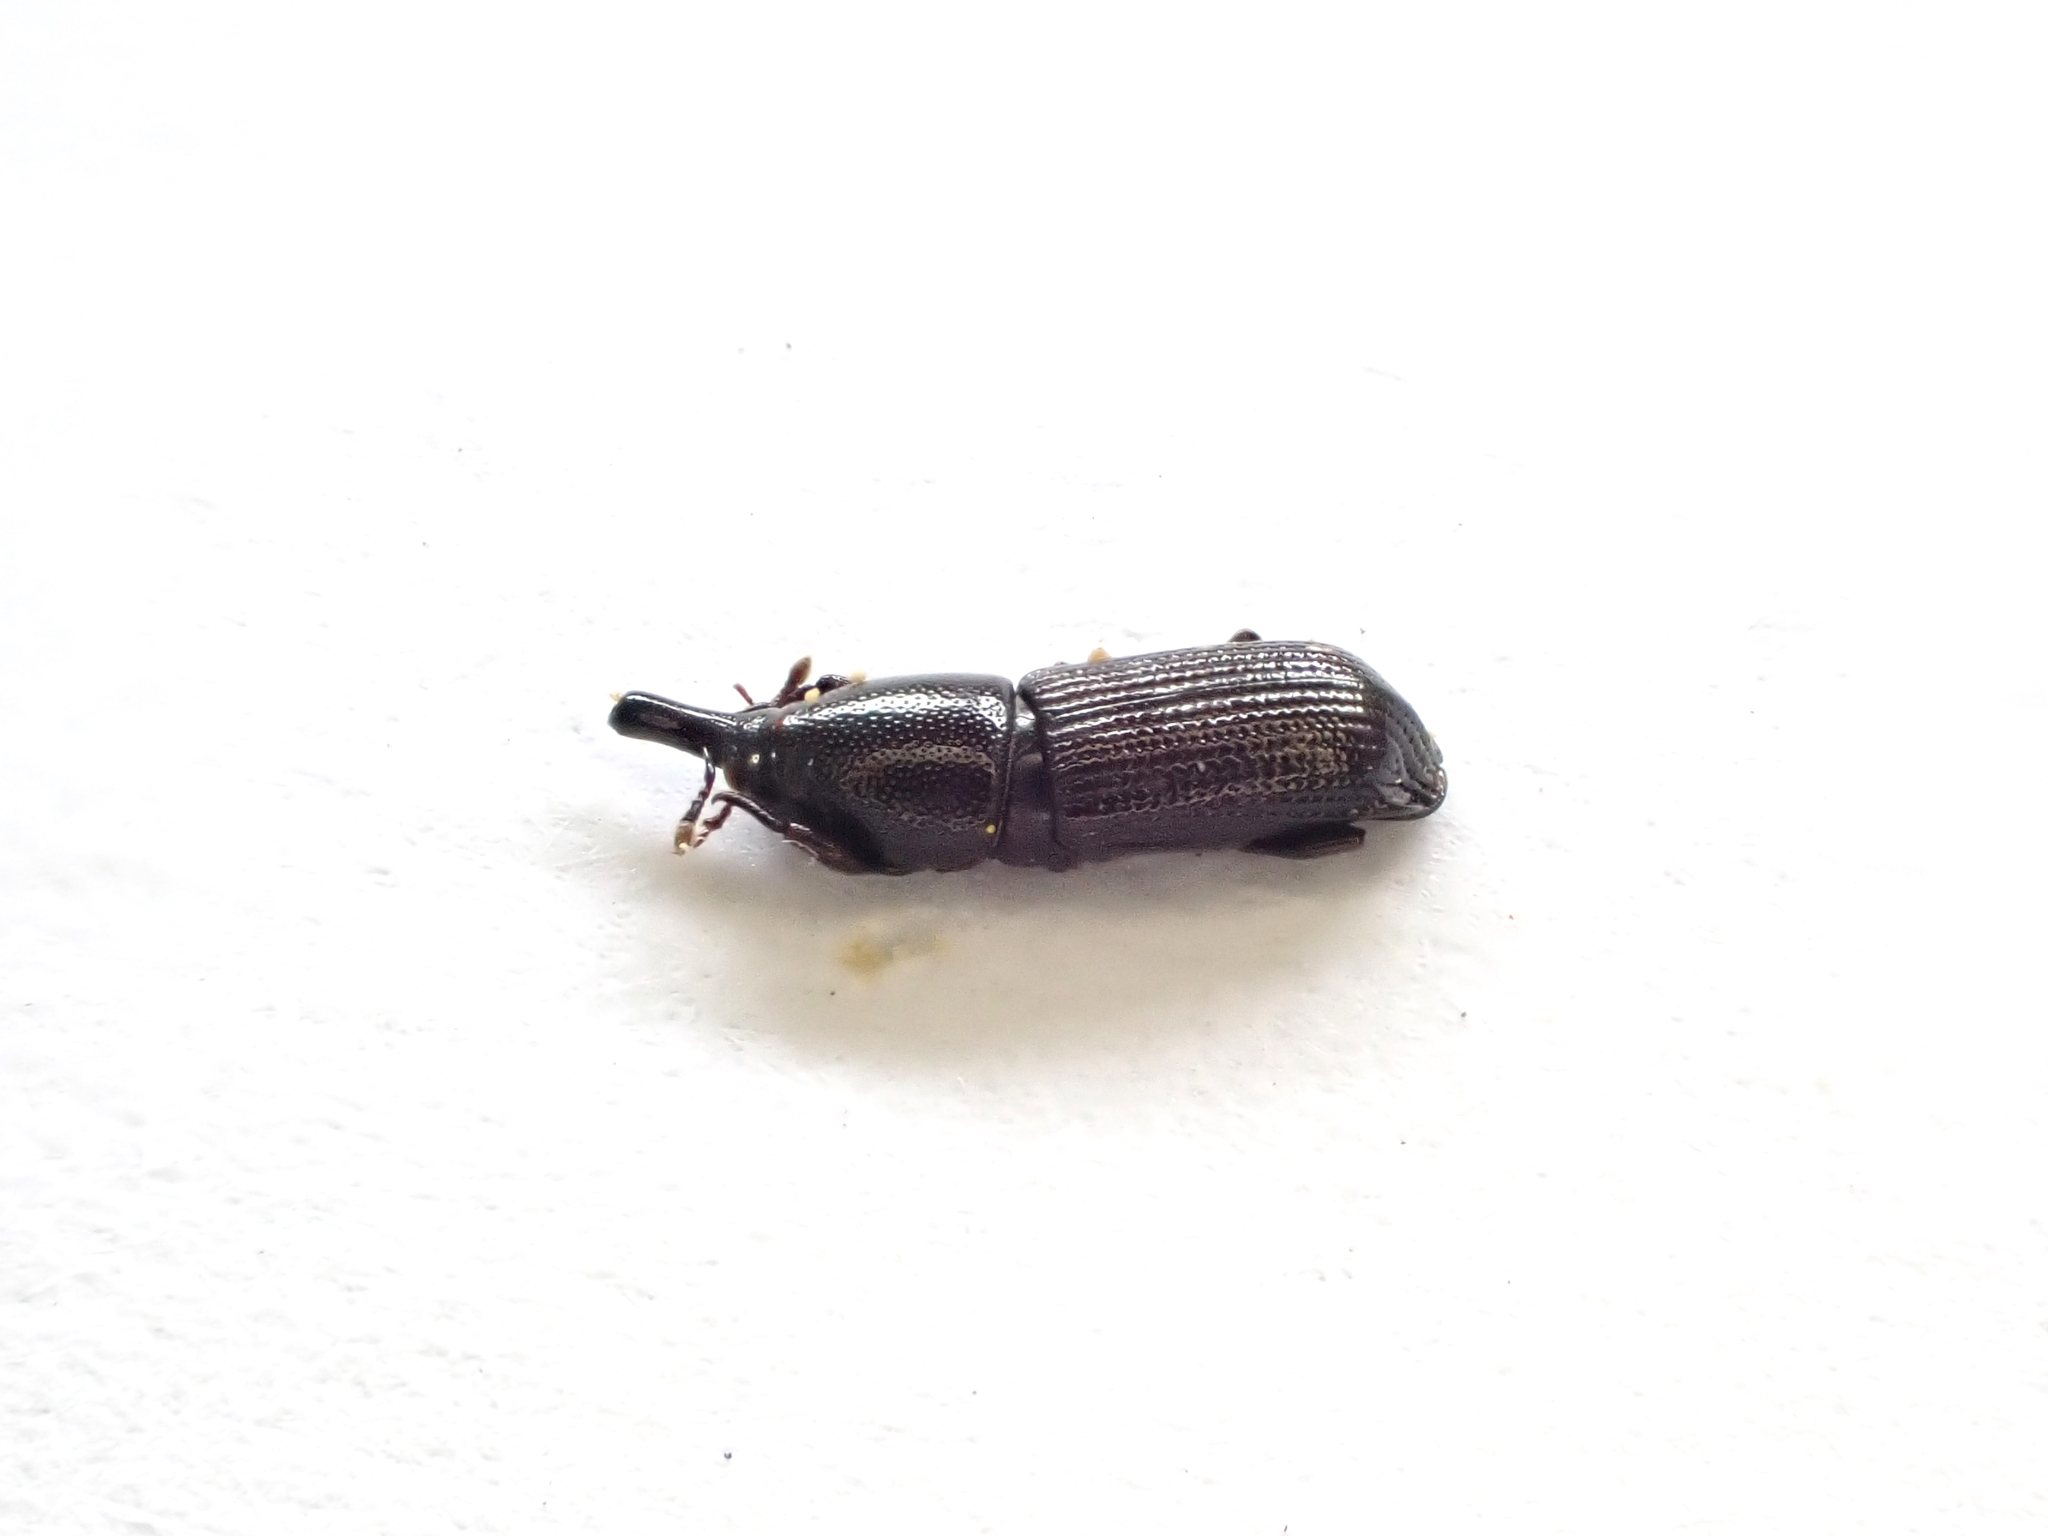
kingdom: Animalia
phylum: Arthropoda
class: Insecta
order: Coleoptera
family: Curculionidae
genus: Torostoma
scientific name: Torostoma apicale
